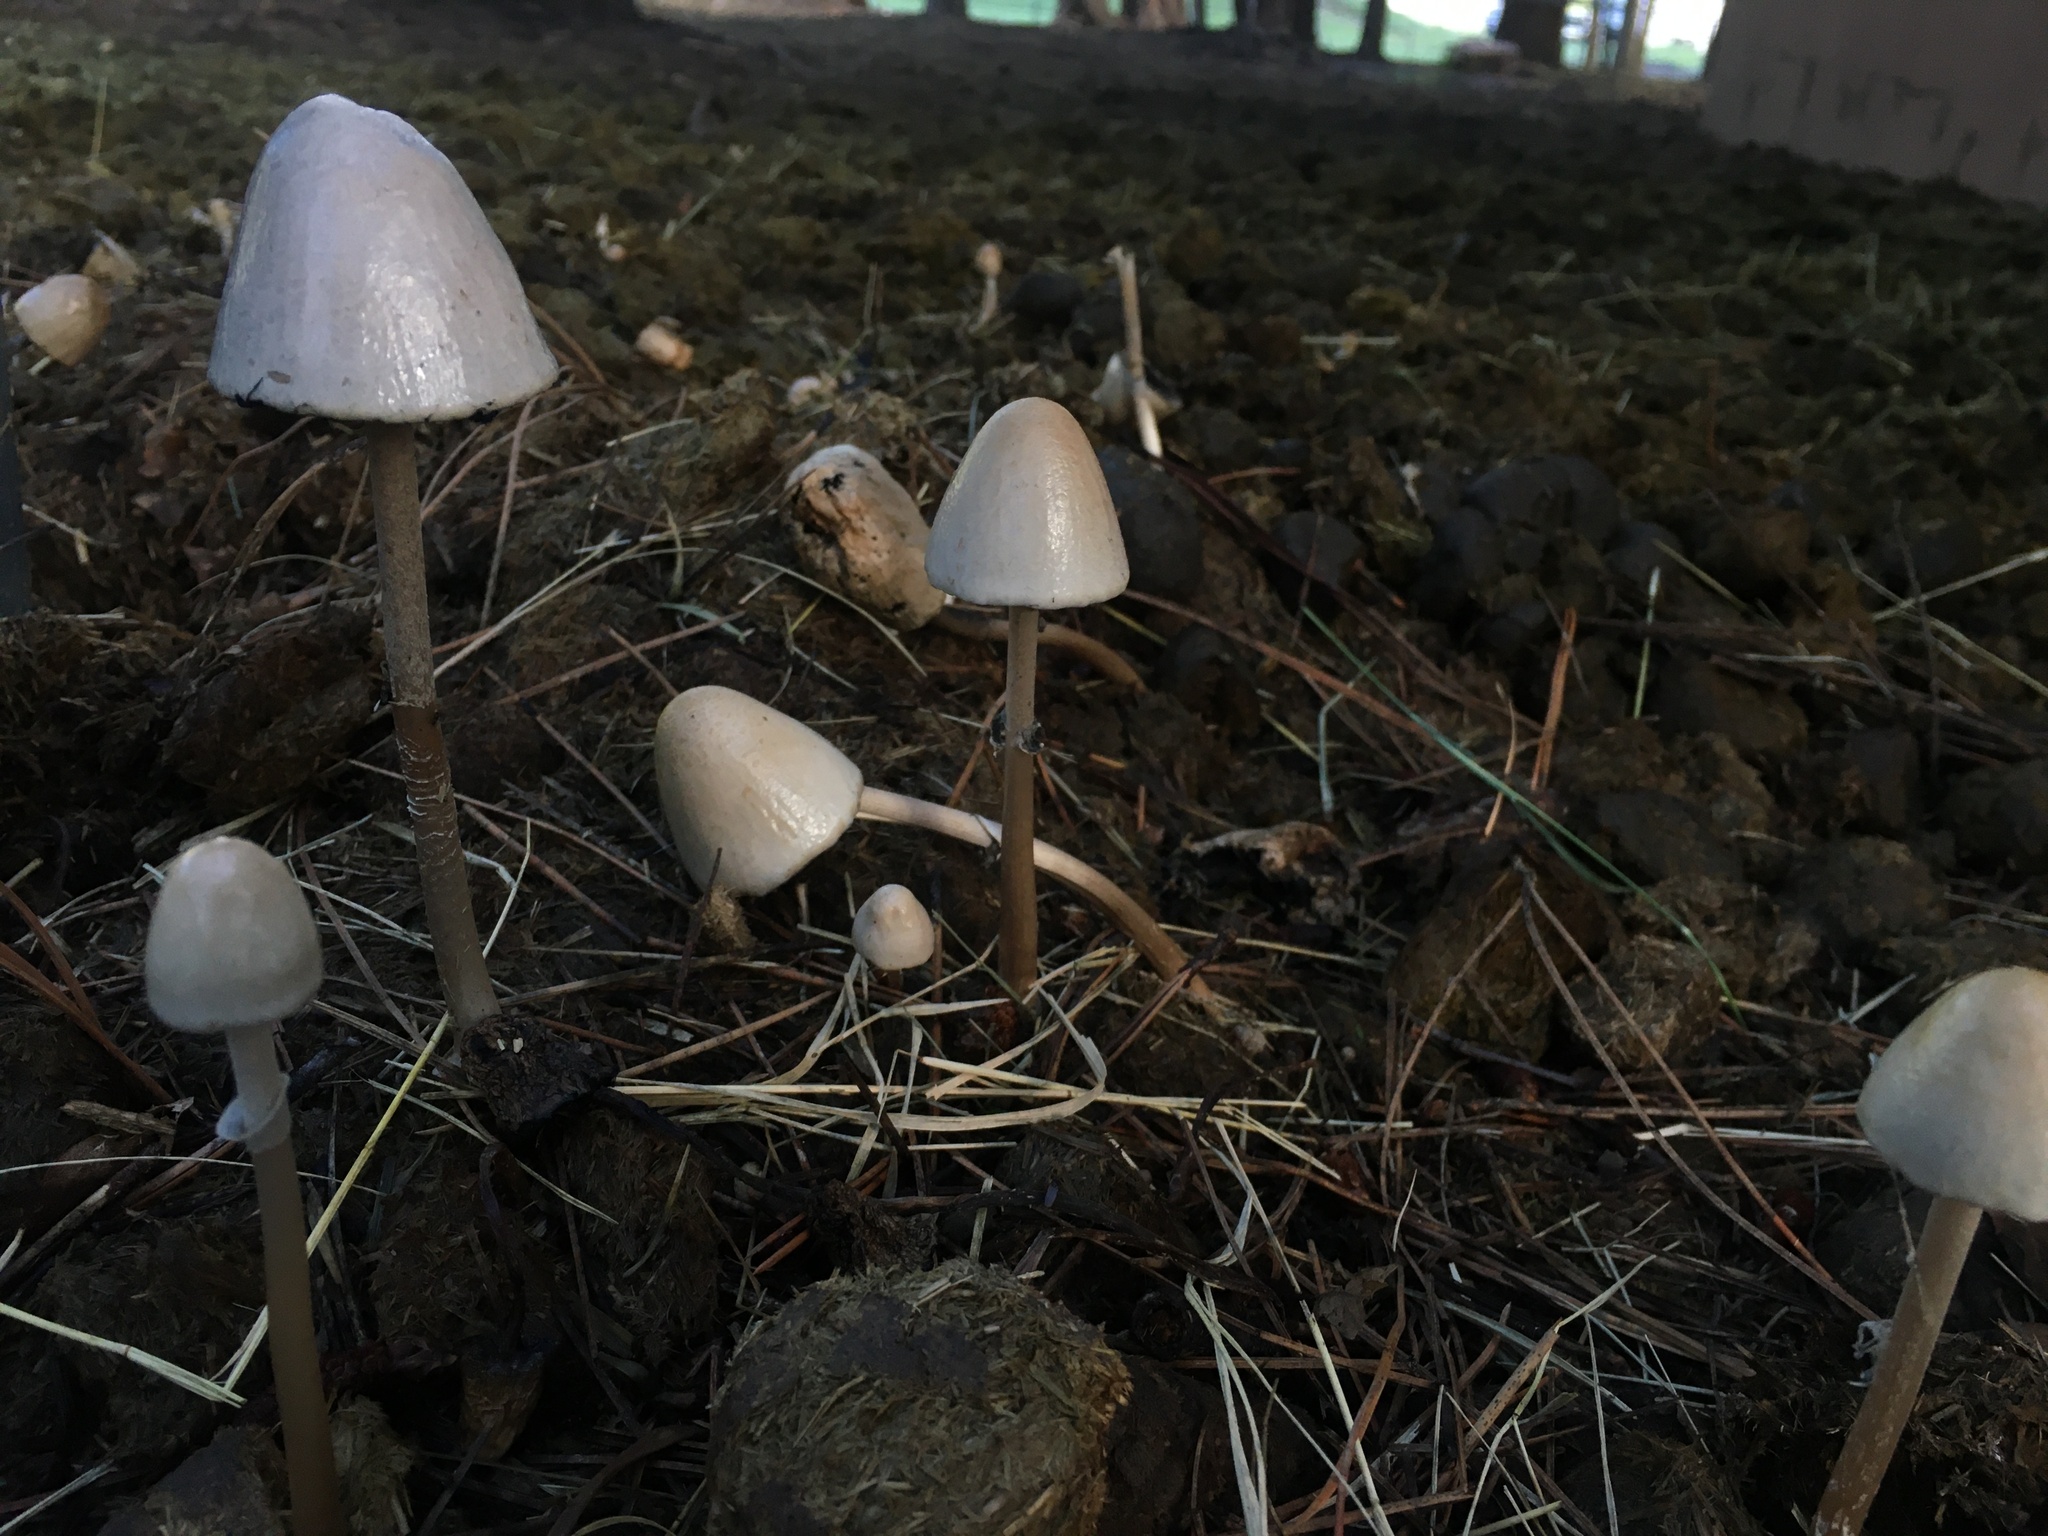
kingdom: Fungi
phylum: Basidiomycota
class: Agaricomycetes
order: Agaricales
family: Bolbitiaceae
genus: Panaeolus
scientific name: Panaeolus semiovatus
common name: Shiny mottlegill
